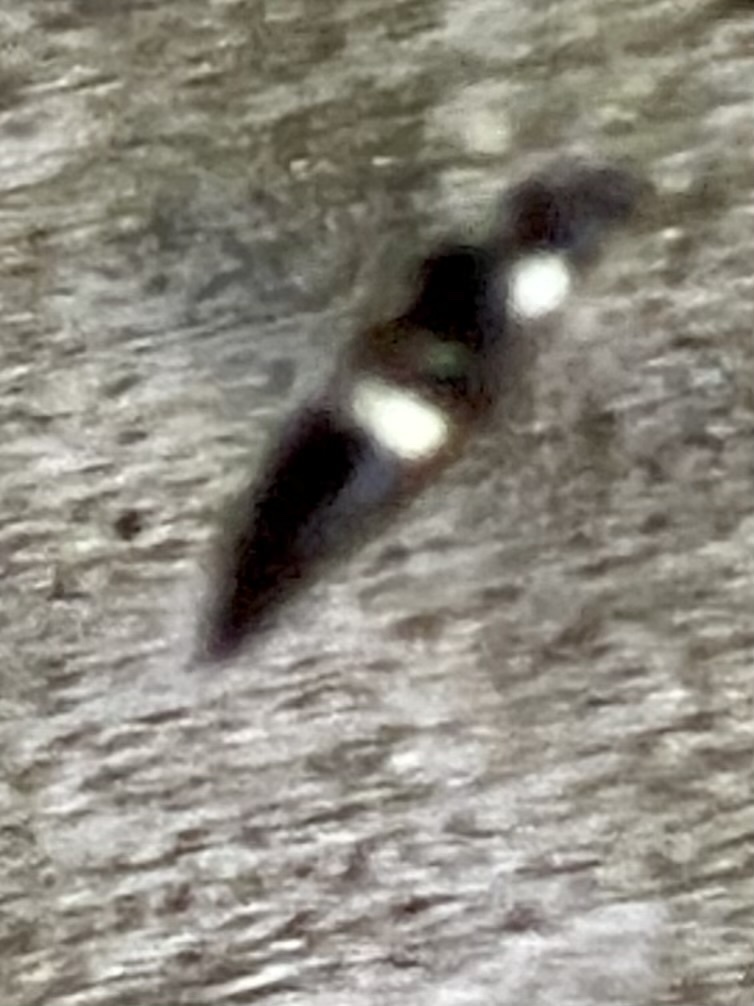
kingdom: Animalia
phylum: Arthropoda
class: Insecta
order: Hymenoptera
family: Eumenidae
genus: Monobia
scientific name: Monobia quadridens
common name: Four-toothed mason wasp
